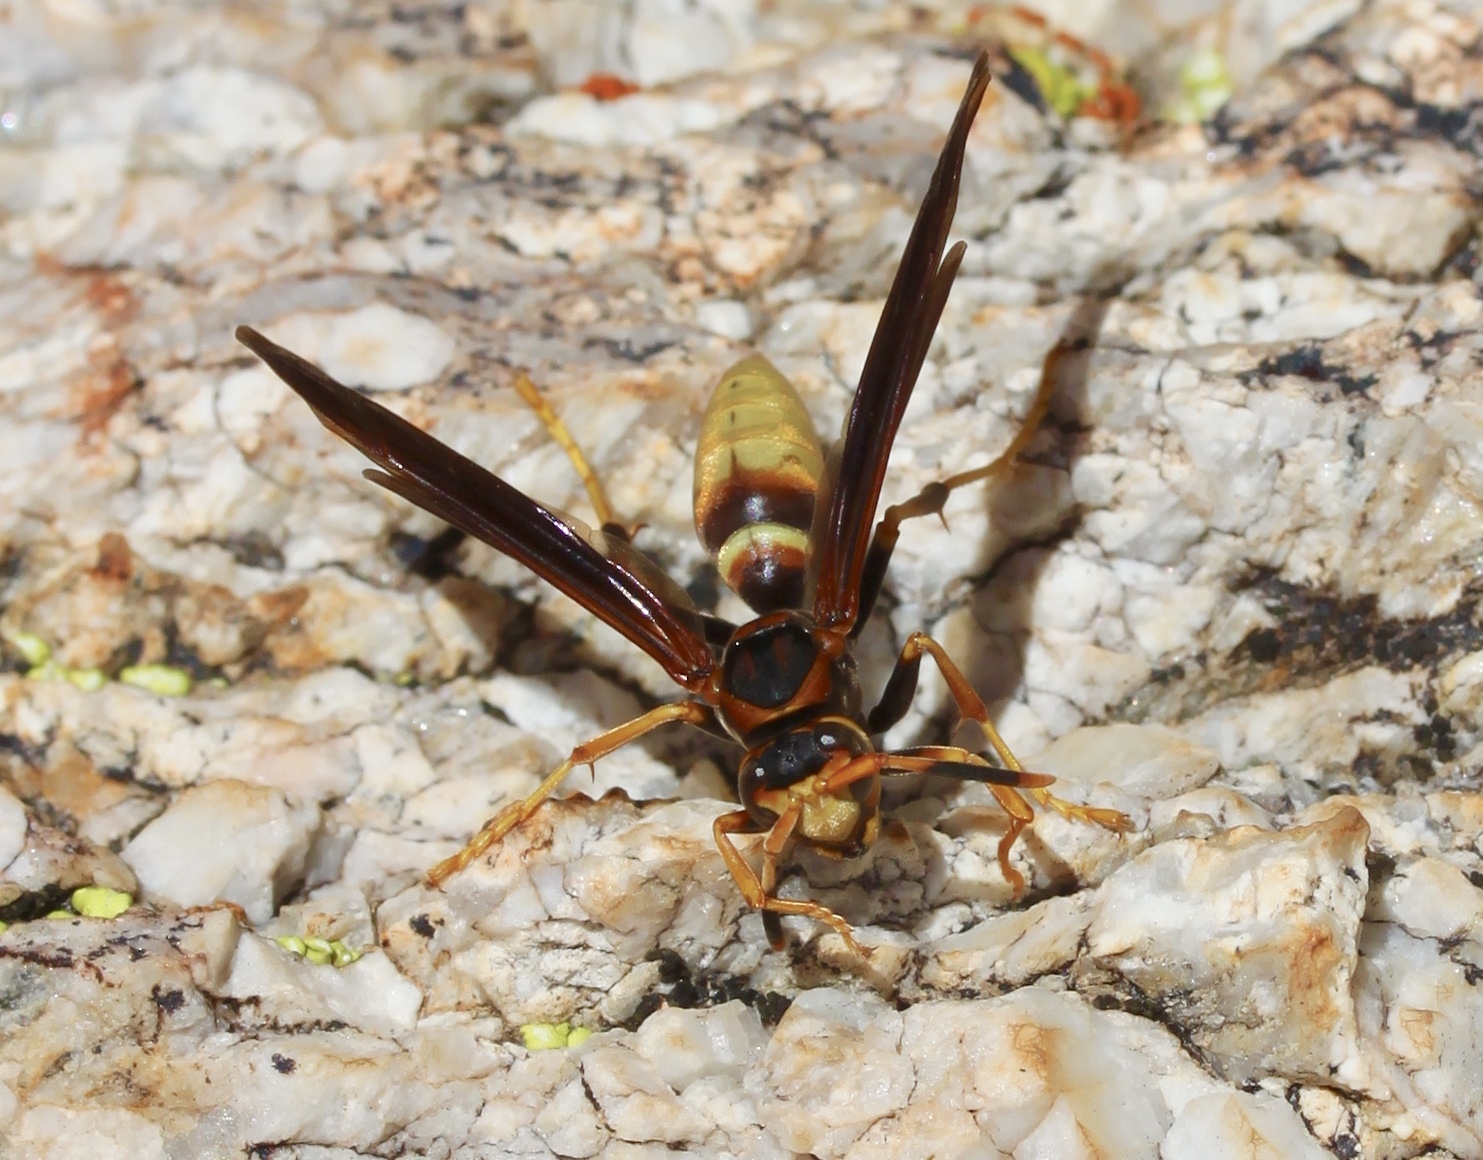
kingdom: Animalia
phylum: Arthropoda
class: Insecta
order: Hymenoptera
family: Eumenidae
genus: Polistes
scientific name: Polistes comanchus
